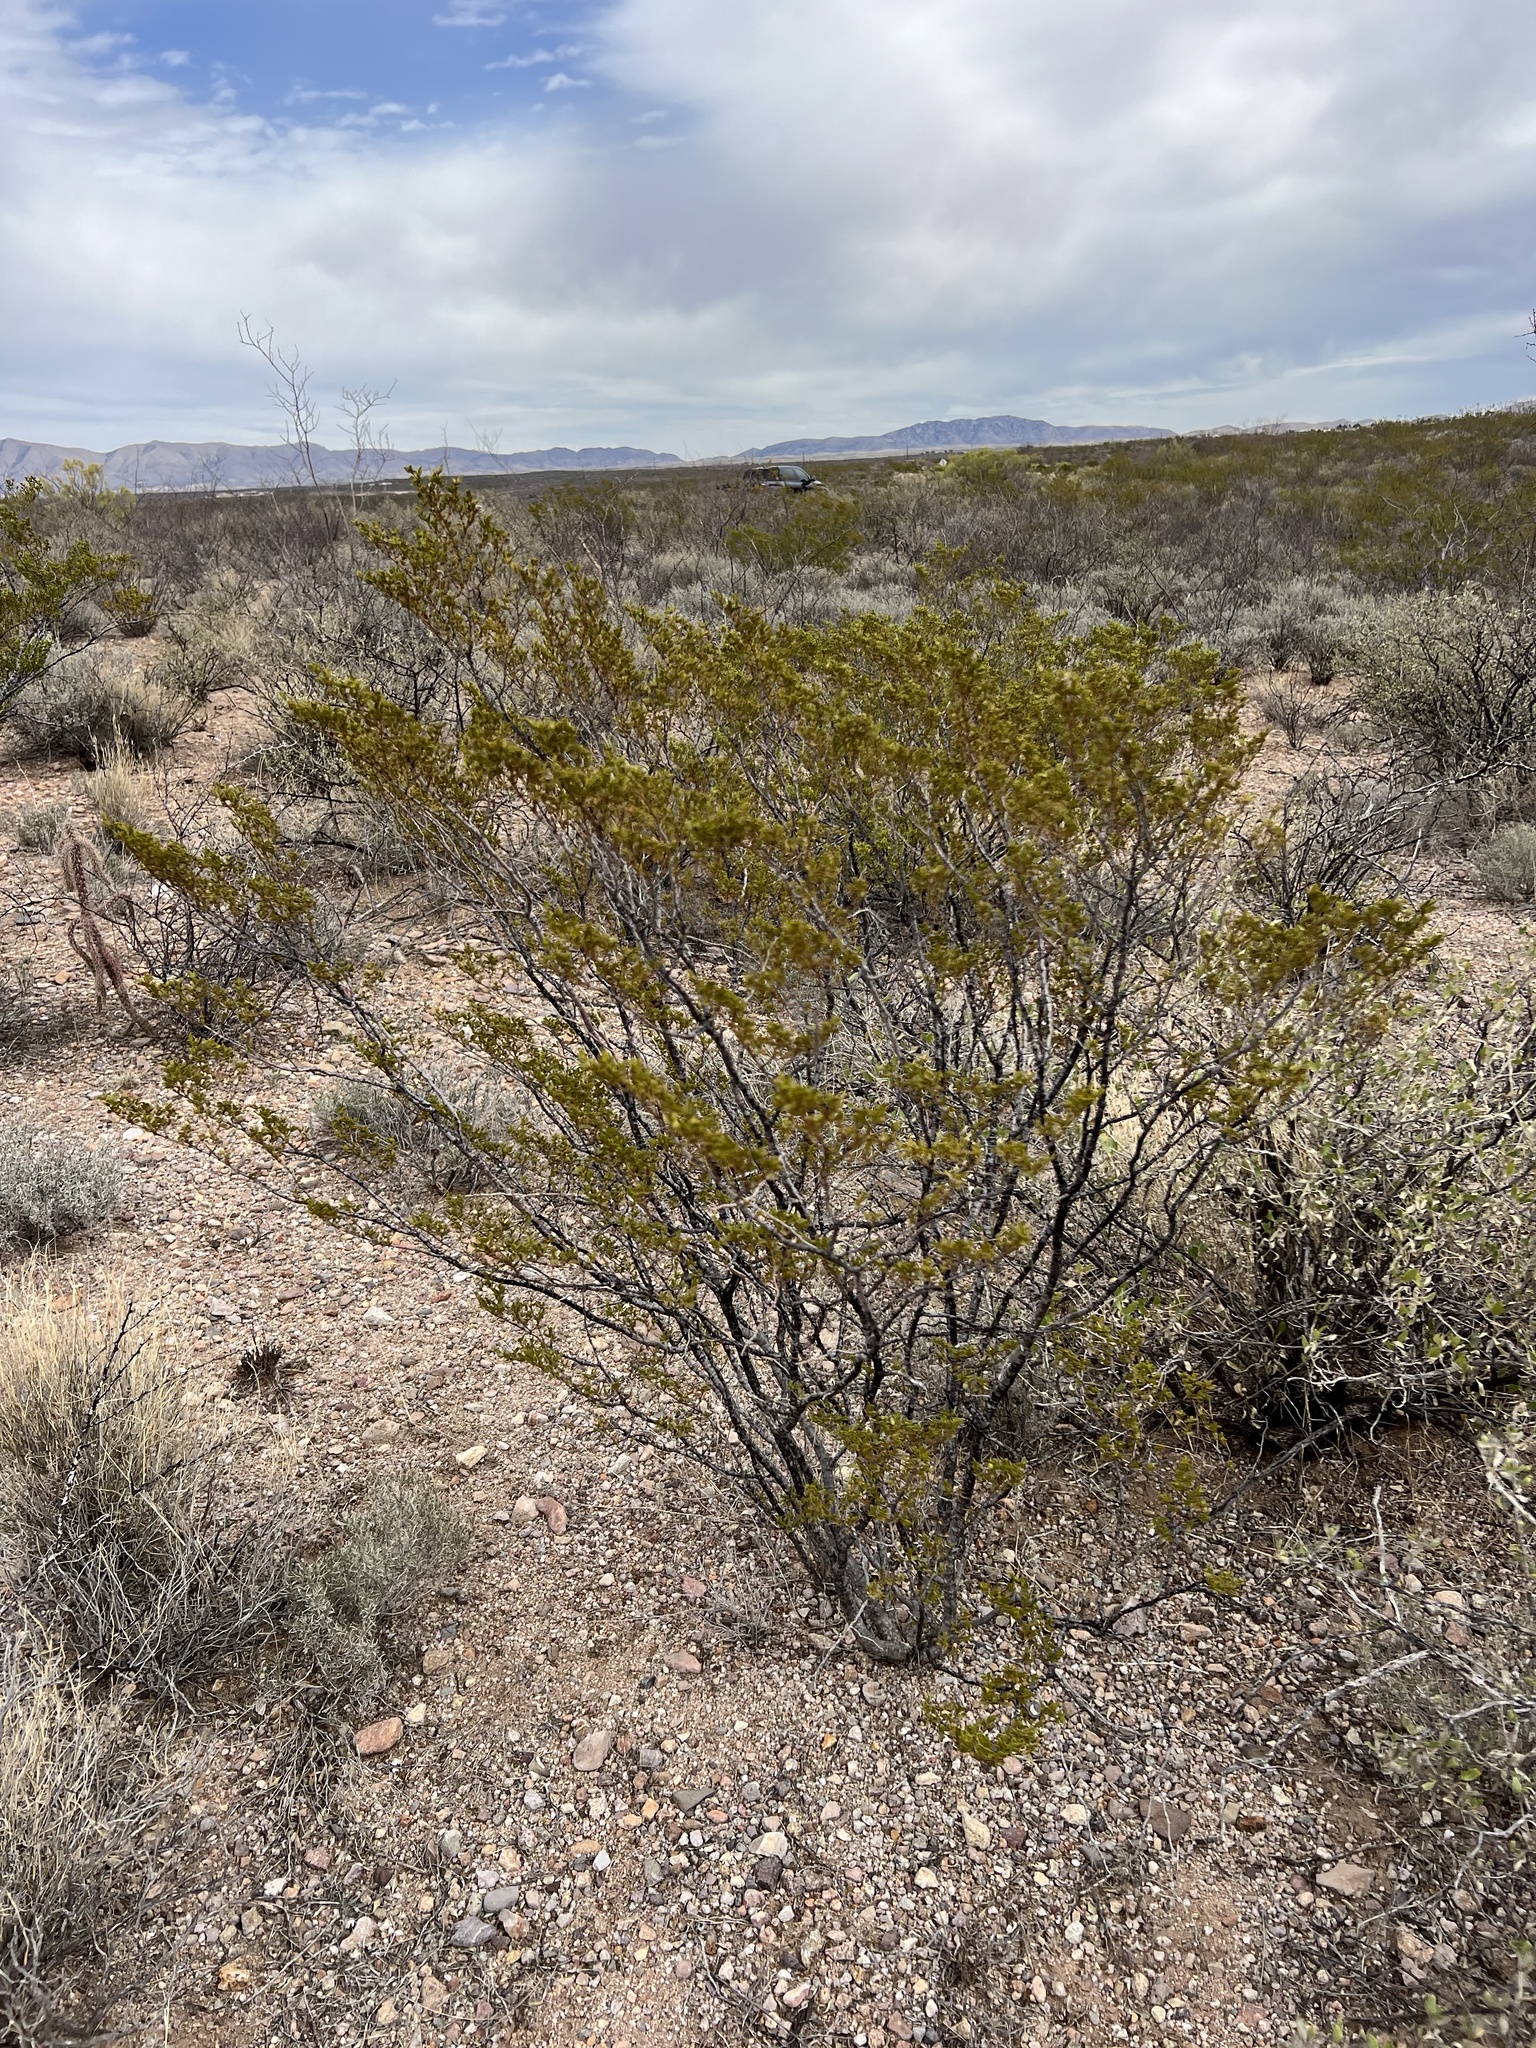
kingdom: Plantae
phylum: Tracheophyta
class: Magnoliopsida
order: Zygophyllales
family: Zygophyllaceae
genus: Larrea
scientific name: Larrea tridentata
